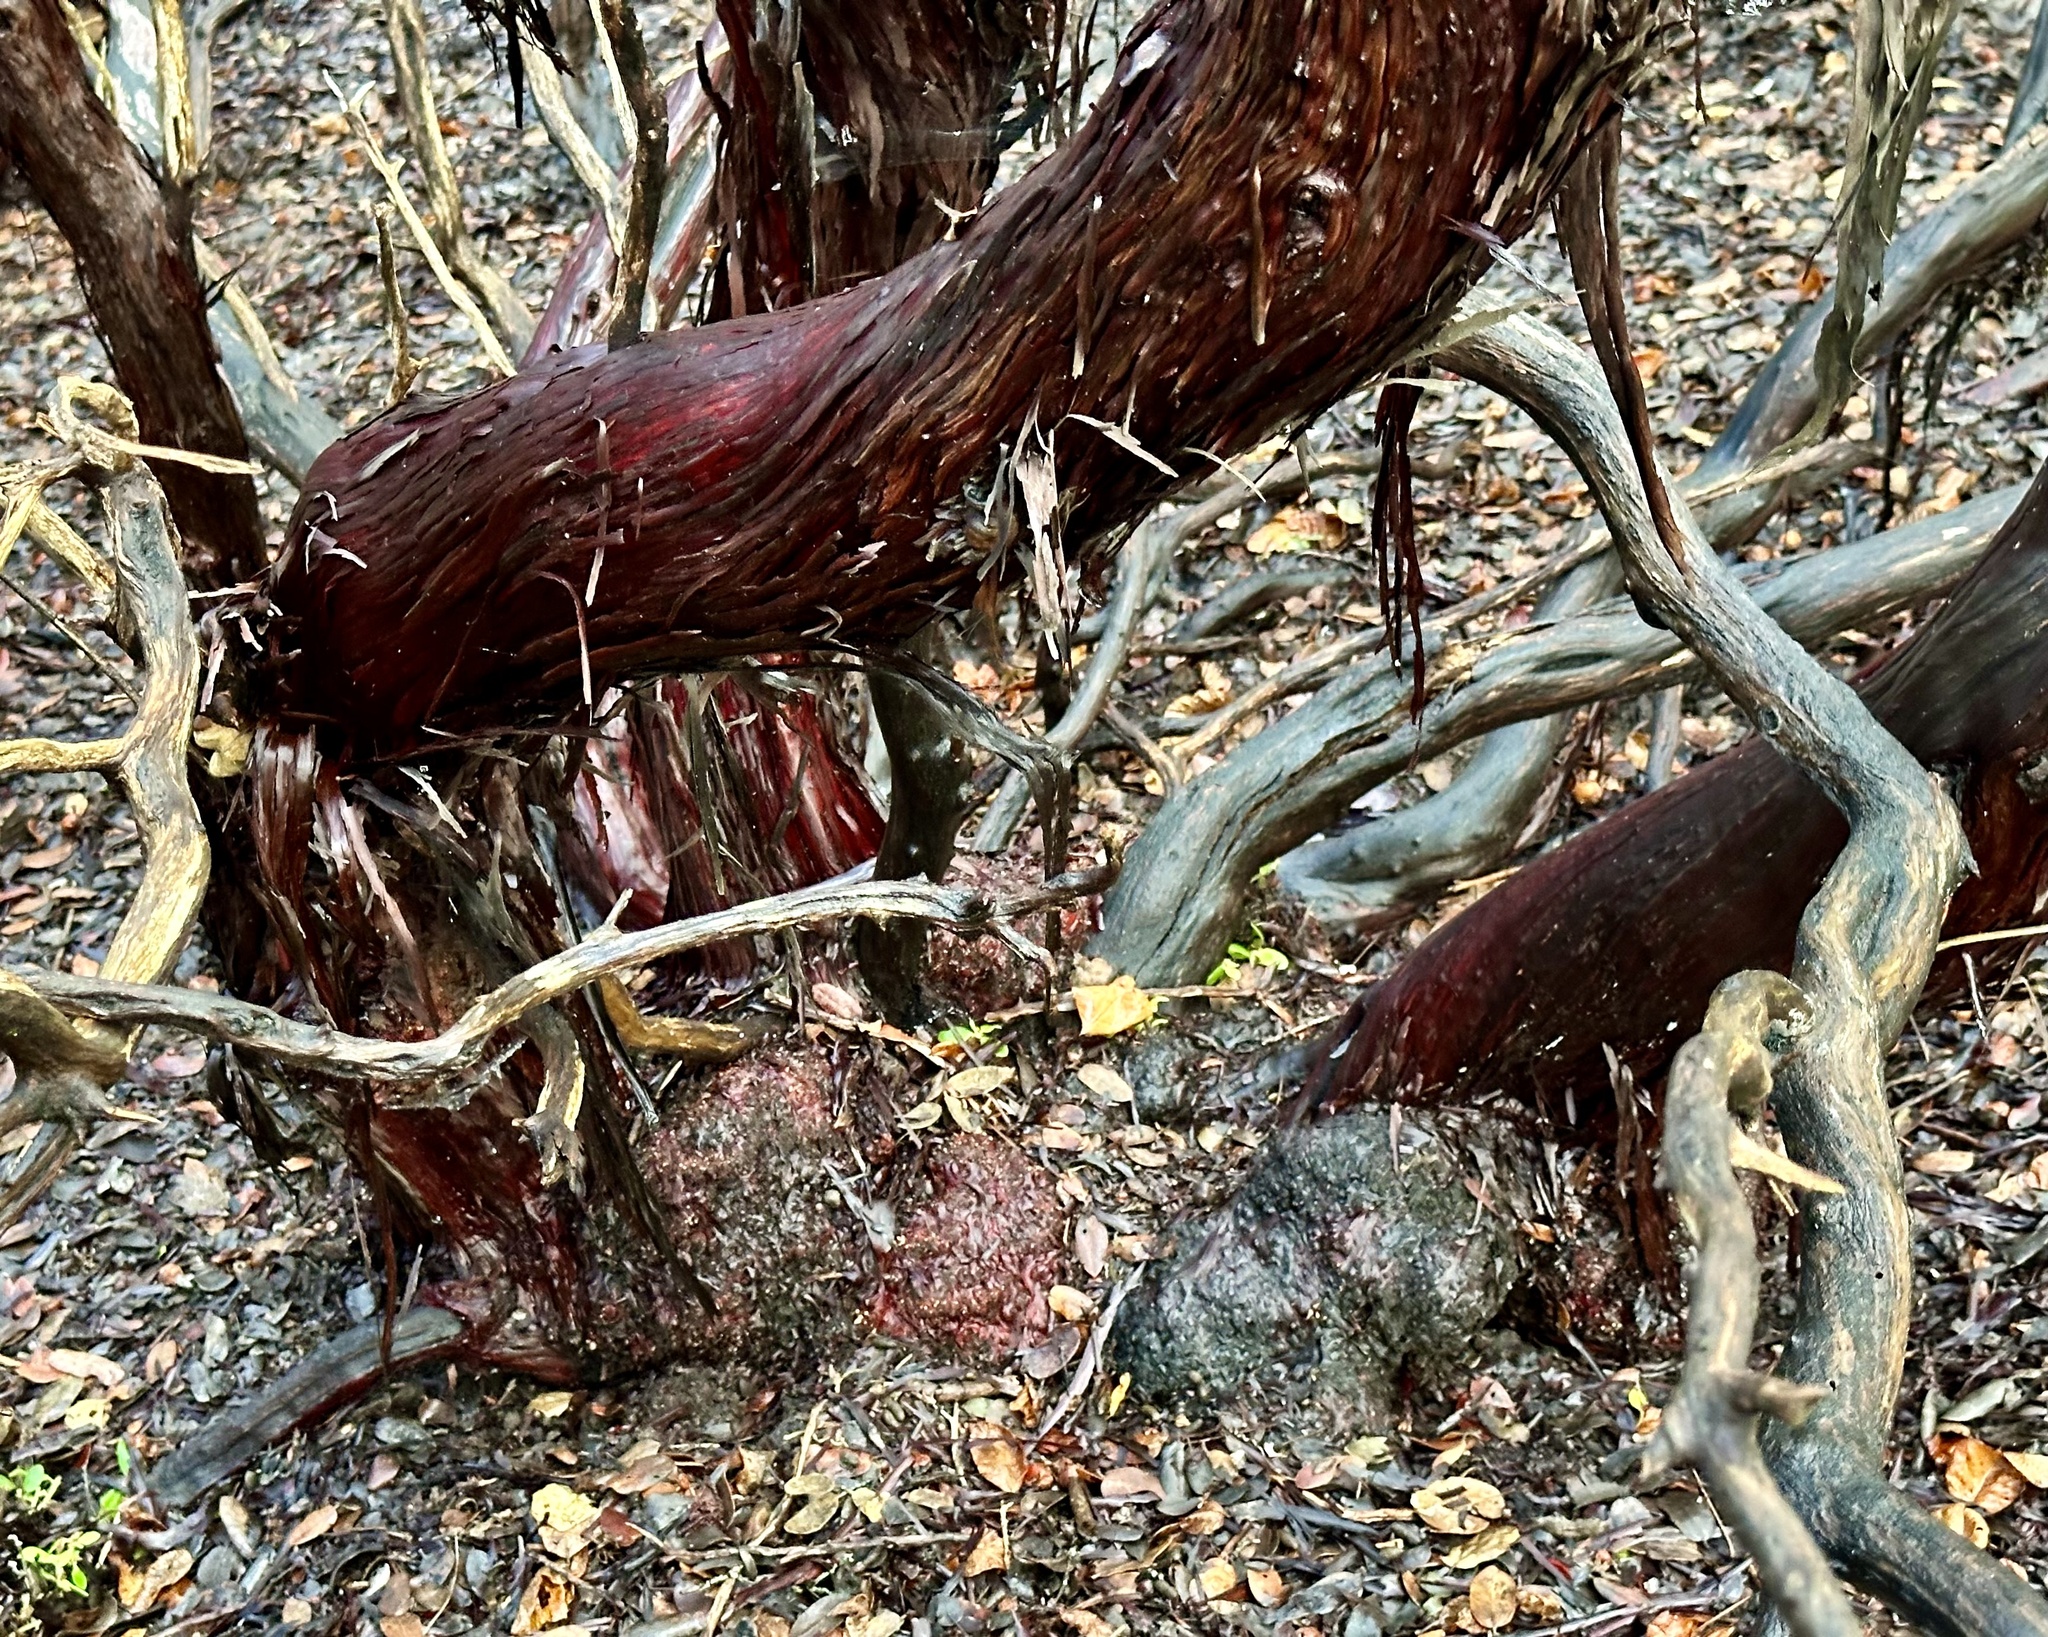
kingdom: Plantae
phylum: Tracheophyta
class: Magnoliopsida
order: Ericales
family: Ericaceae
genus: Arctostaphylos
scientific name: Arctostaphylos tomentosa
